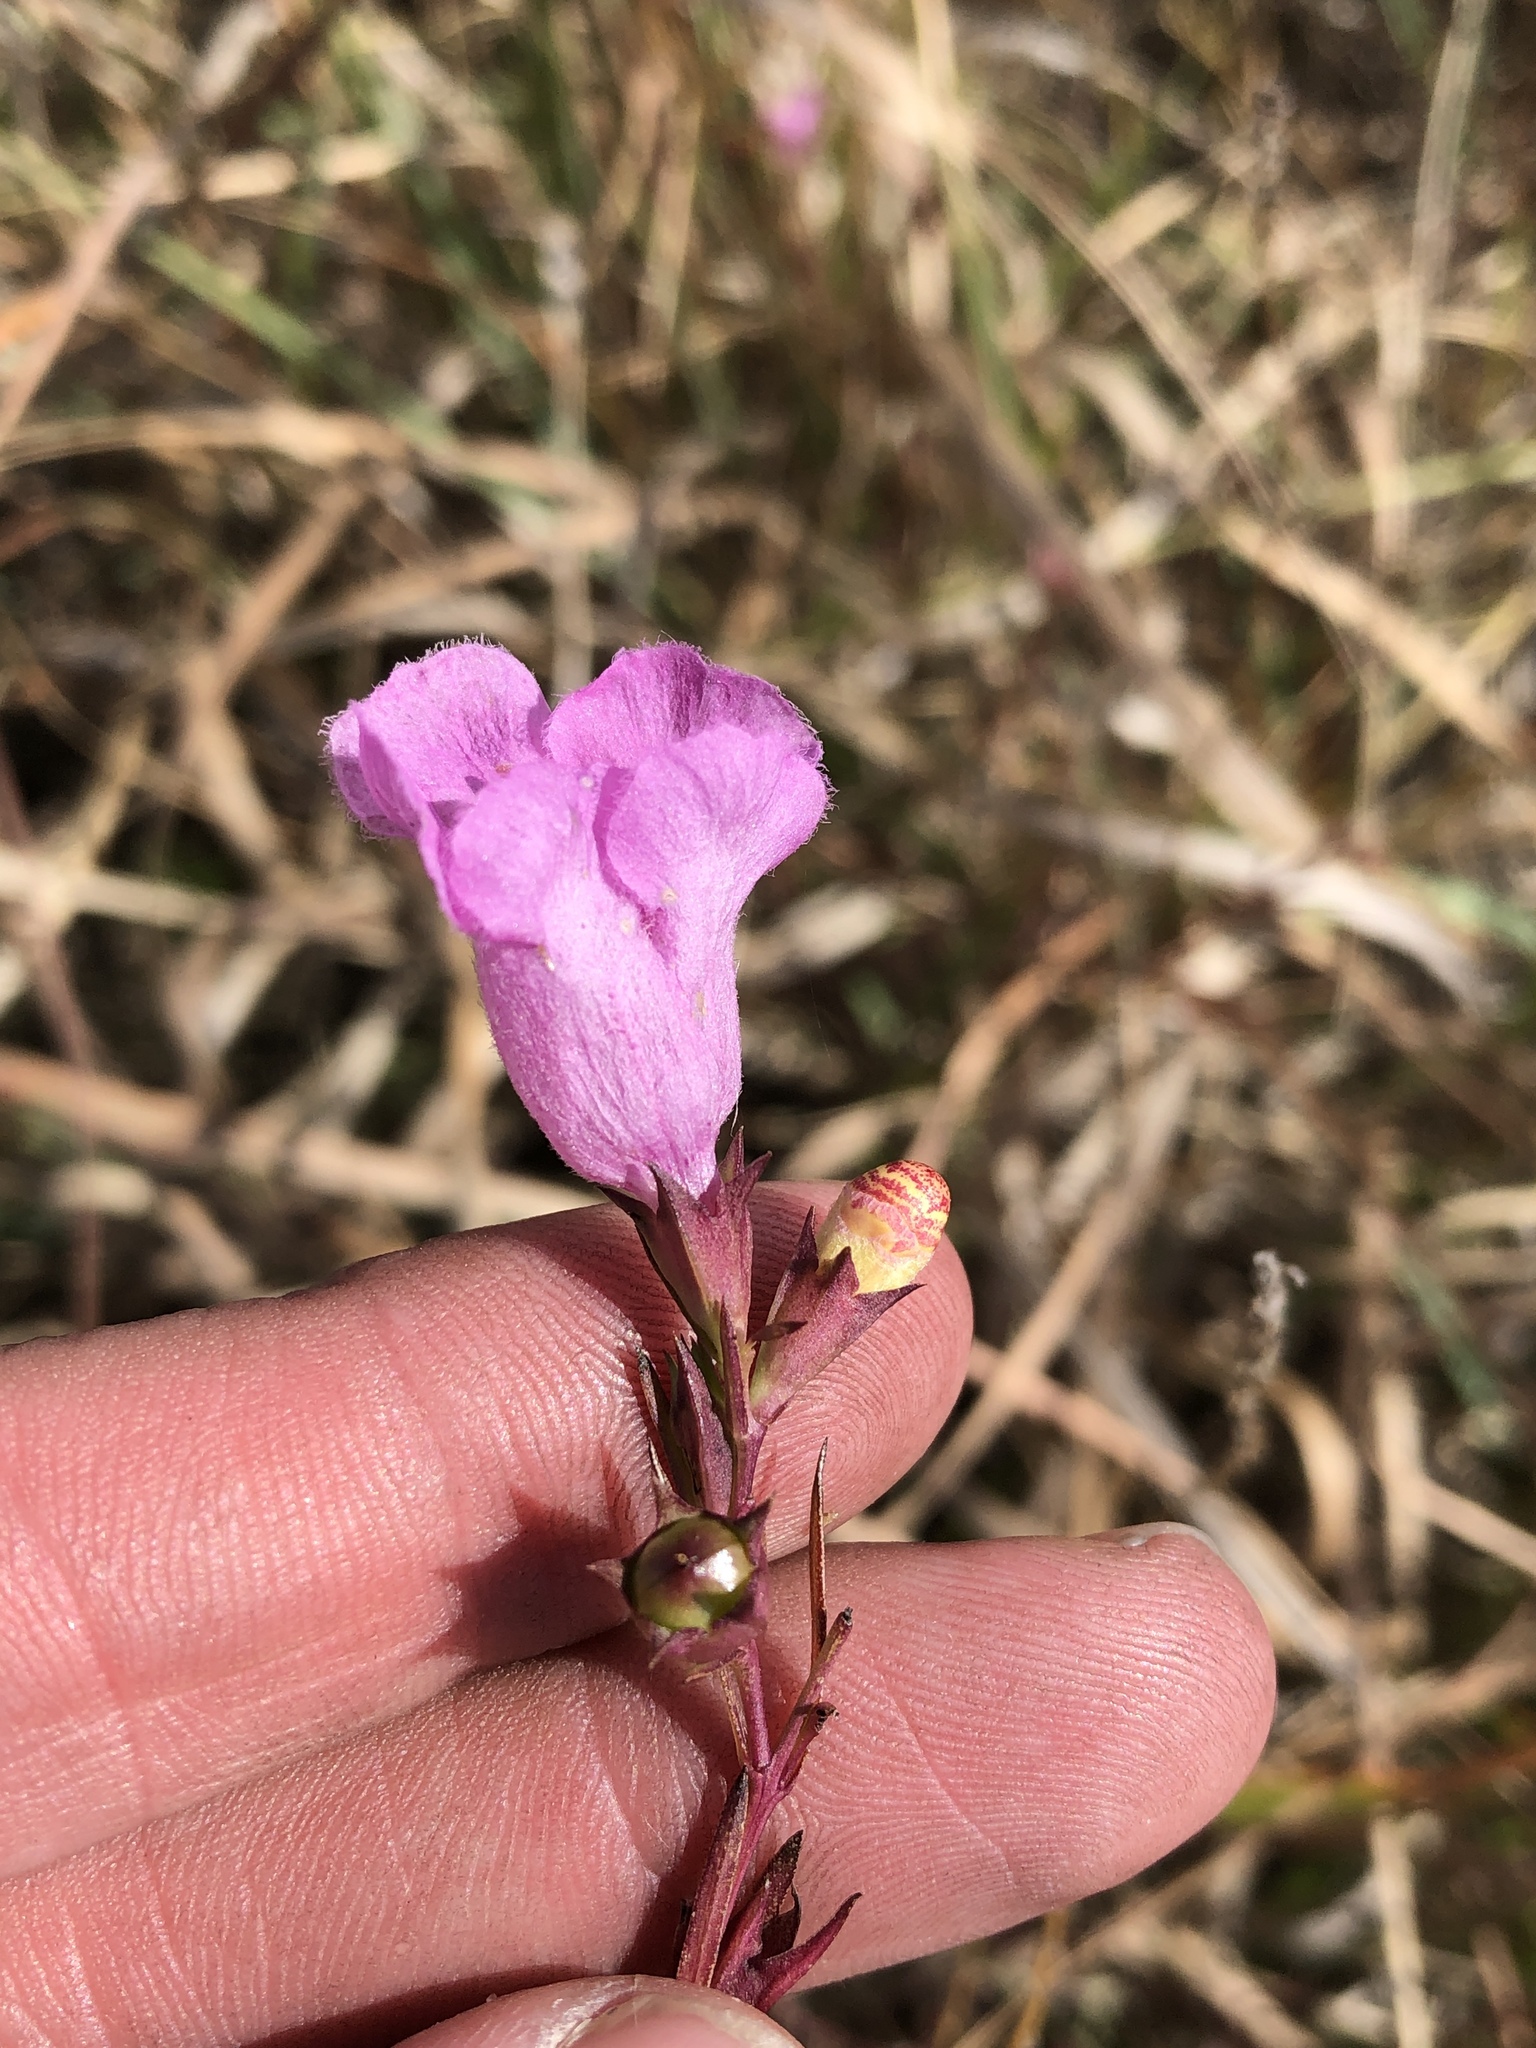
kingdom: Plantae
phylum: Tracheophyta
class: Magnoliopsida
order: Lamiales
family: Orobanchaceae
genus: Agalinis
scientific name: Agalinis heterophylla
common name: Prairie agalinis
